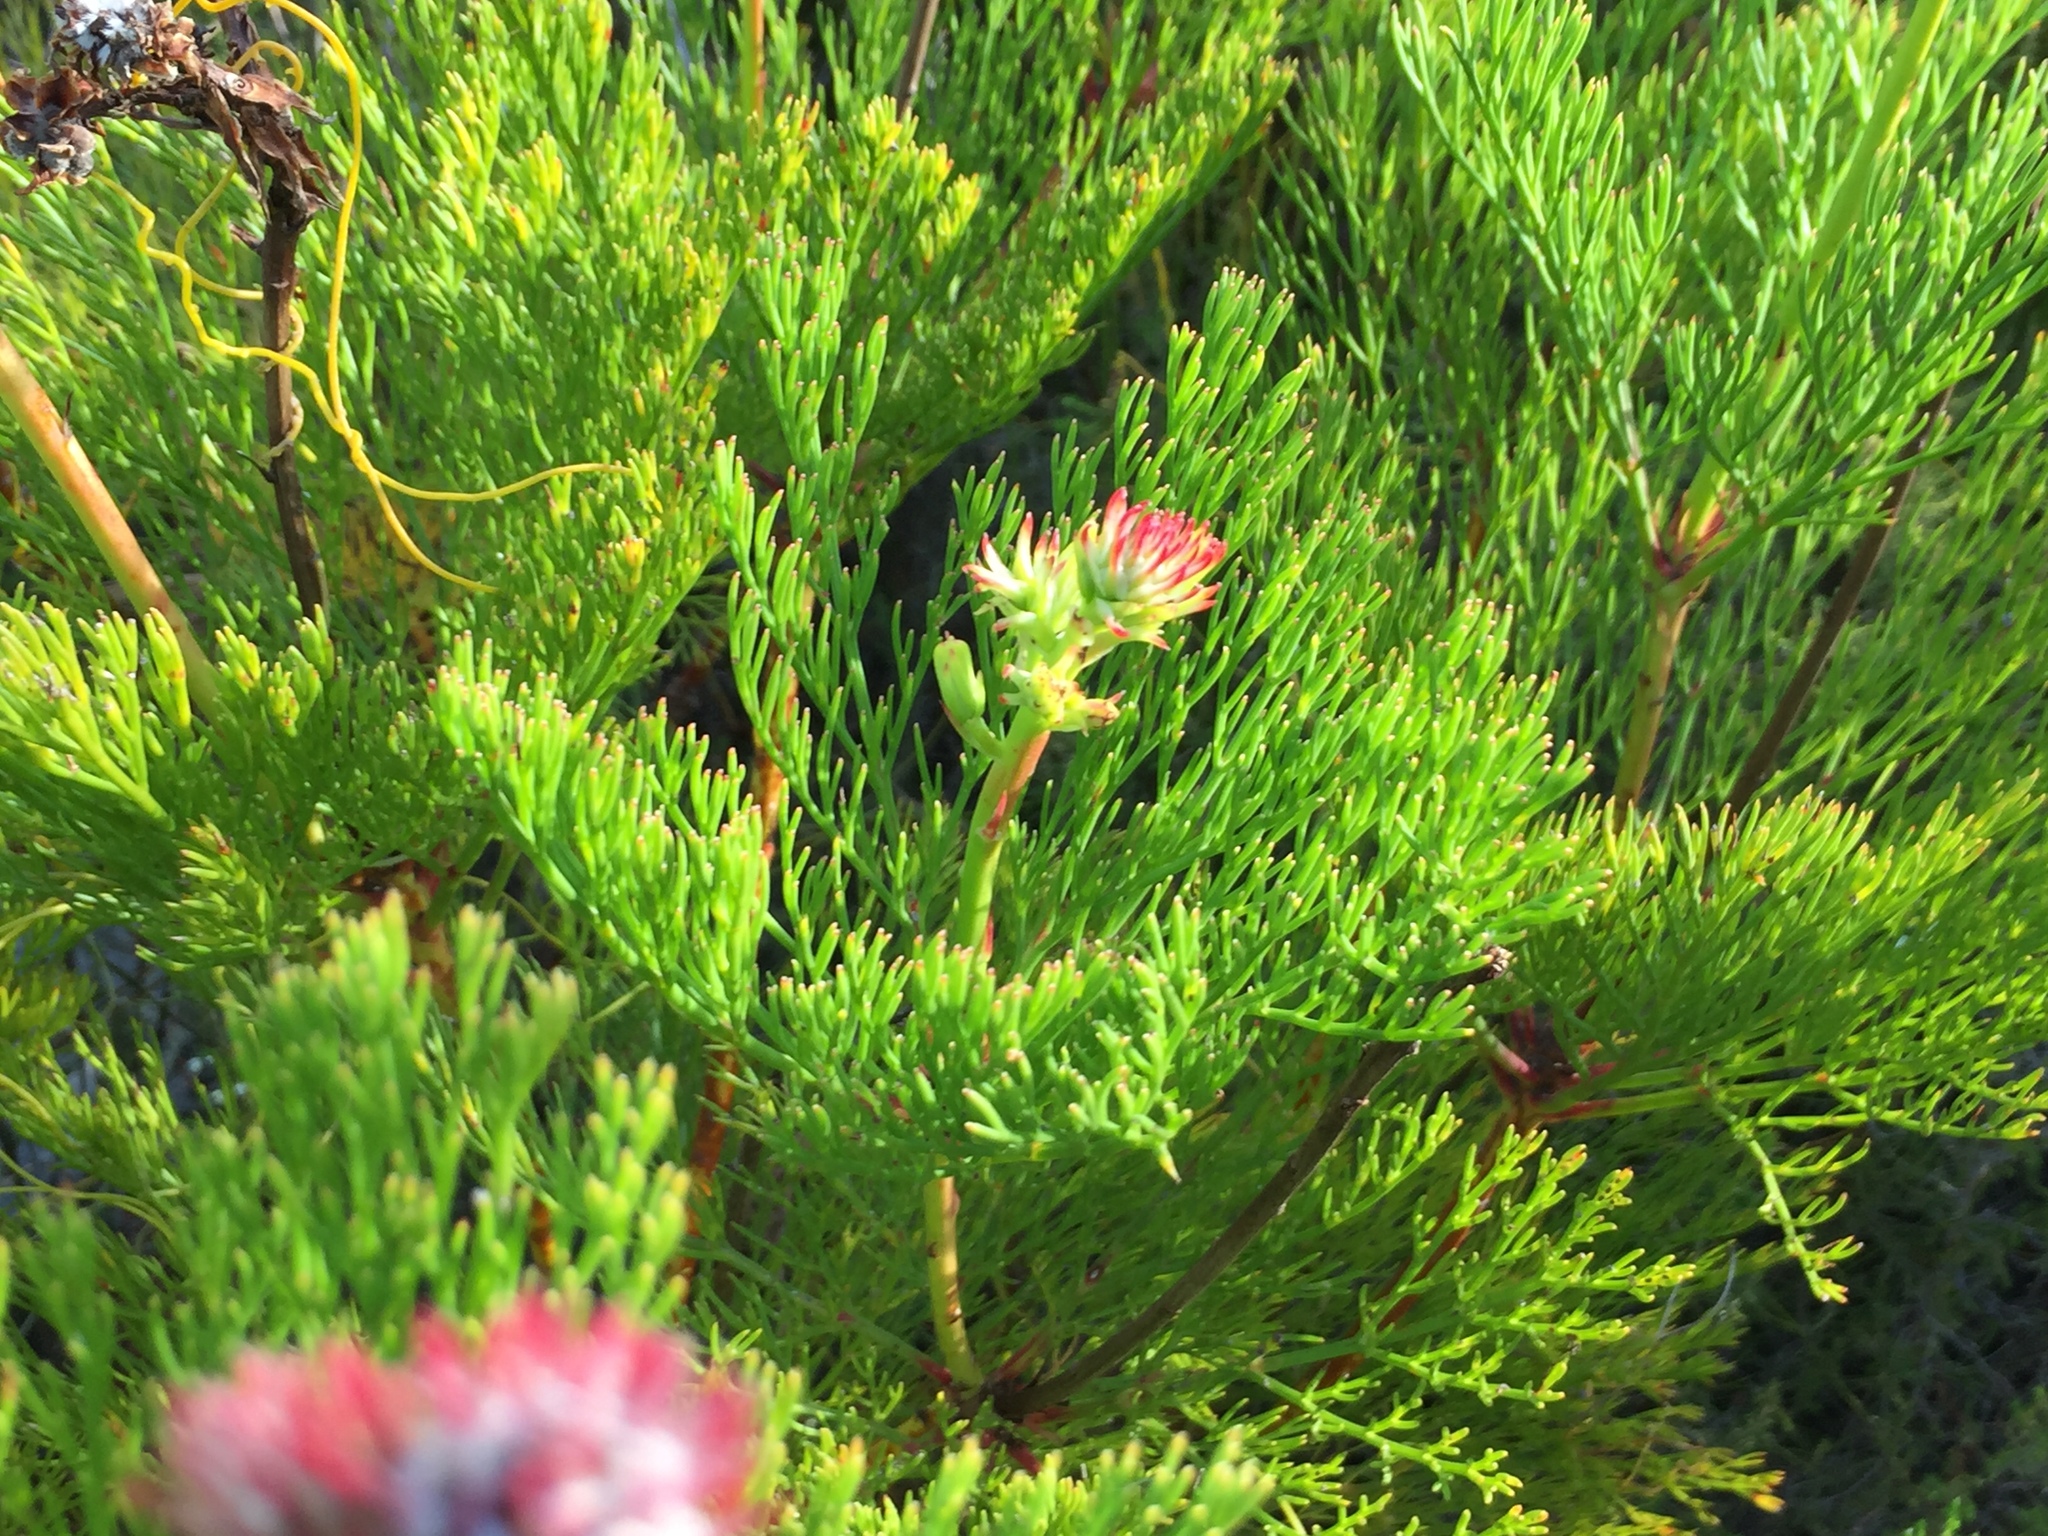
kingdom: Plantae
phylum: Tracheophyta
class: Magnoliopsida
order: Proteales
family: Proteaceae
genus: Serruria
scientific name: Serruria elongata
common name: Long-stalk spiderhead
